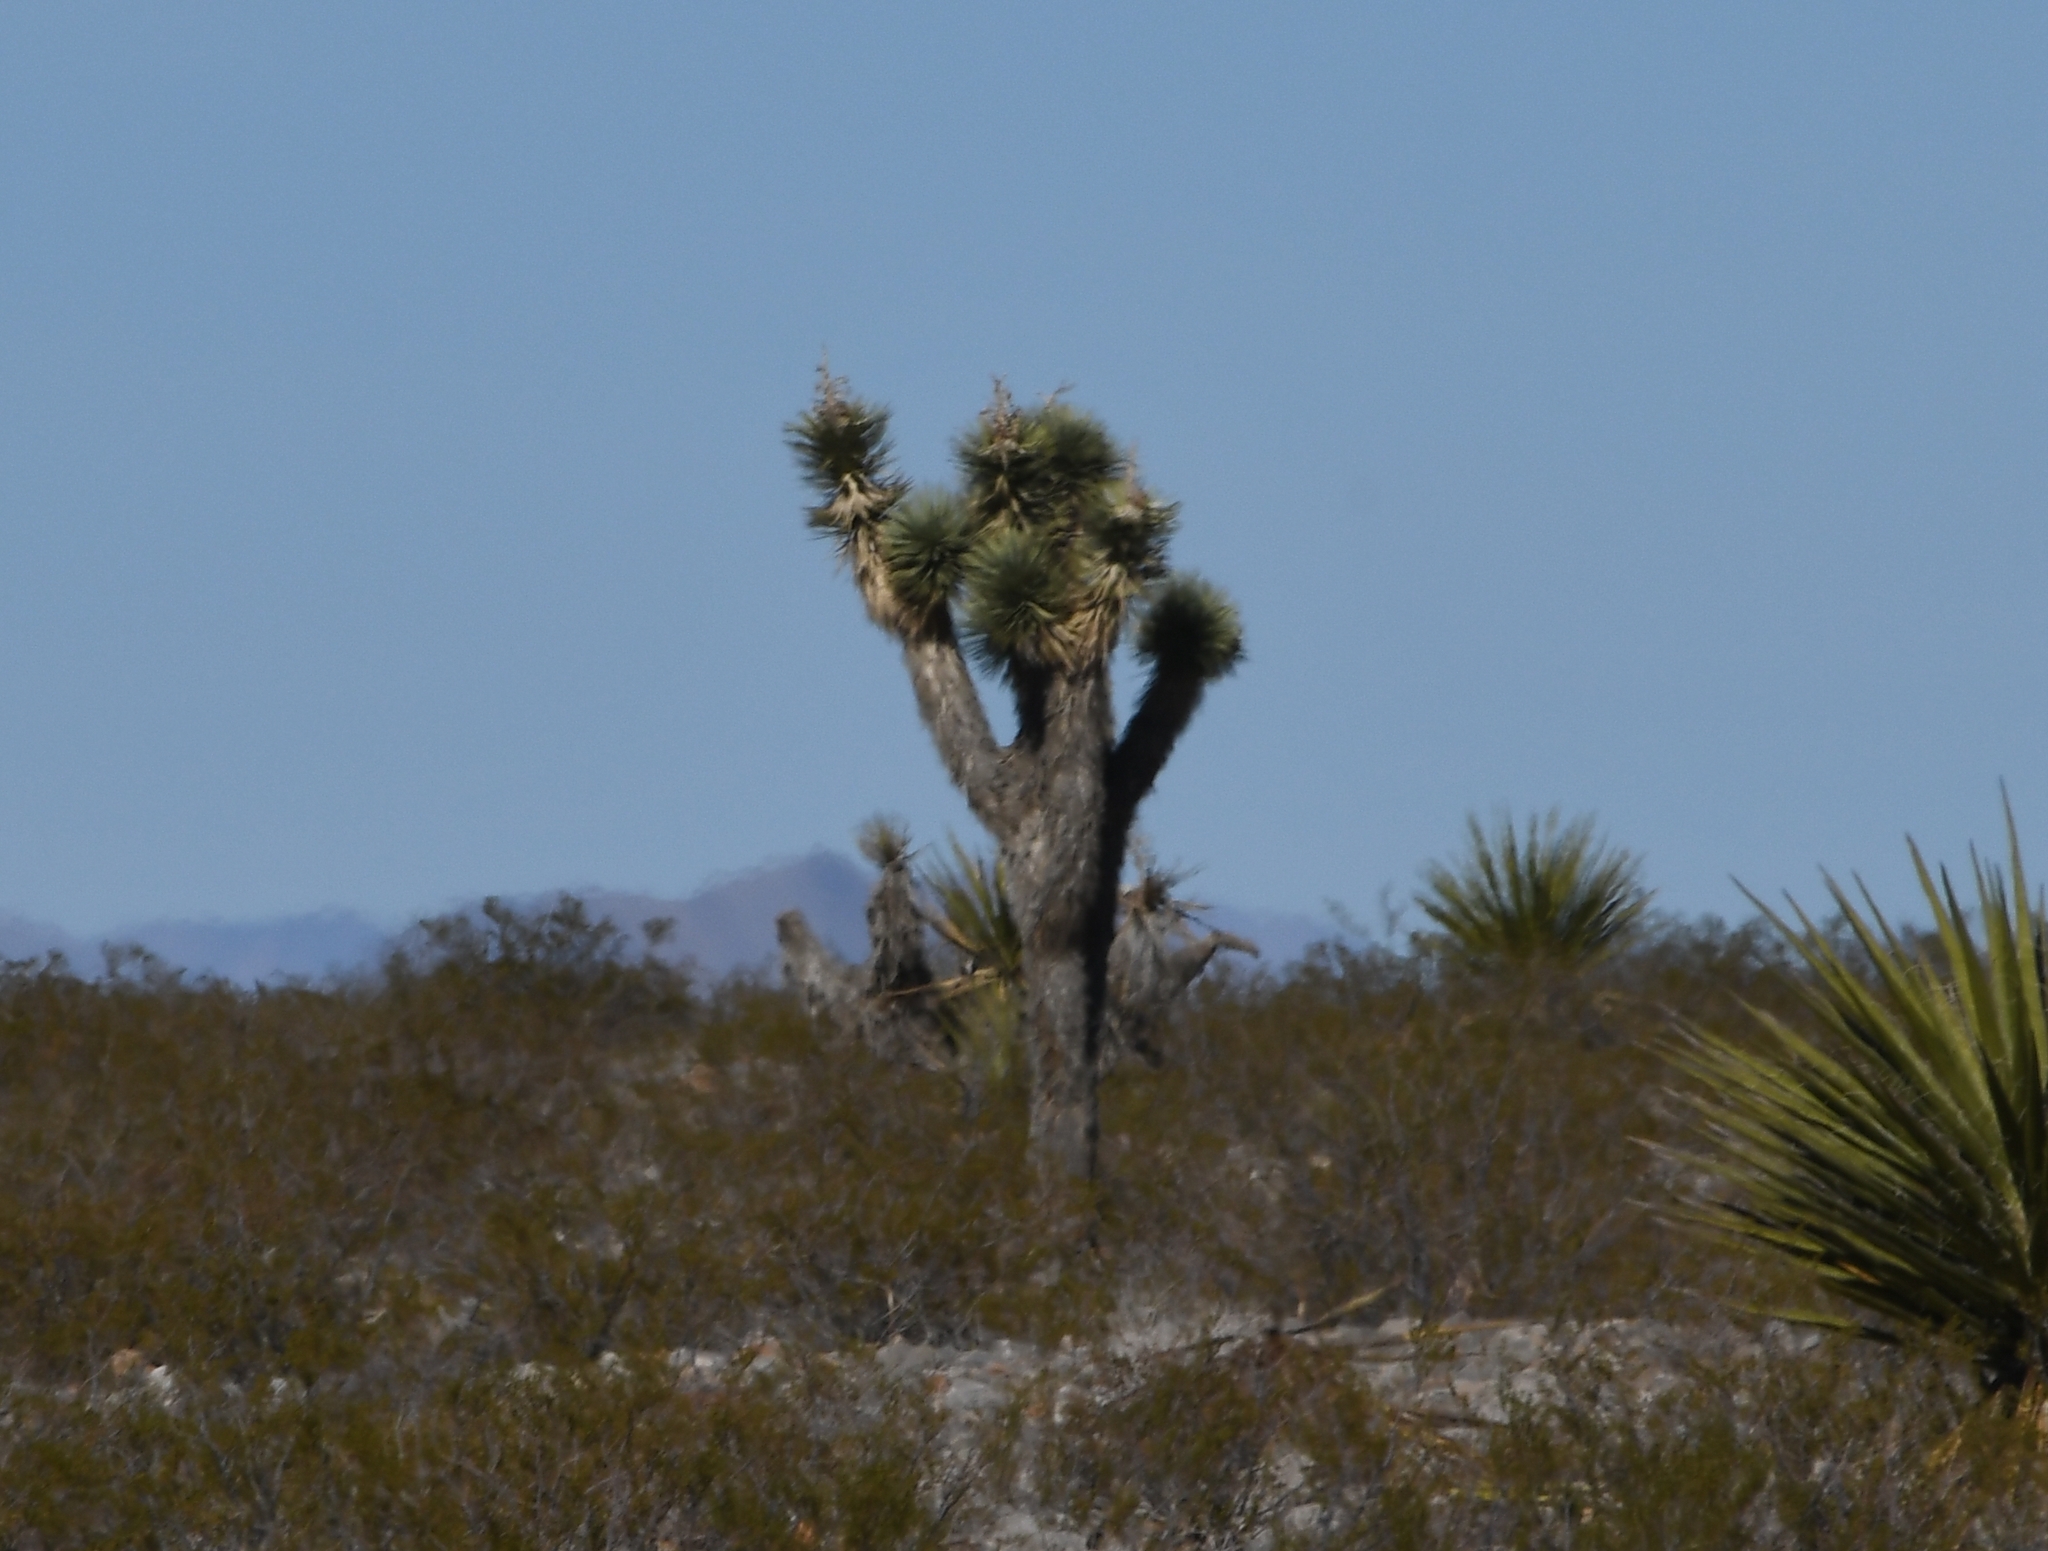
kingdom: Plantae
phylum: Tracheophyta
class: Liliopsida
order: Asparagales
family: Asparagaceae
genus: Yucca
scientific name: Yucca brevifolia
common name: Joshua tree
